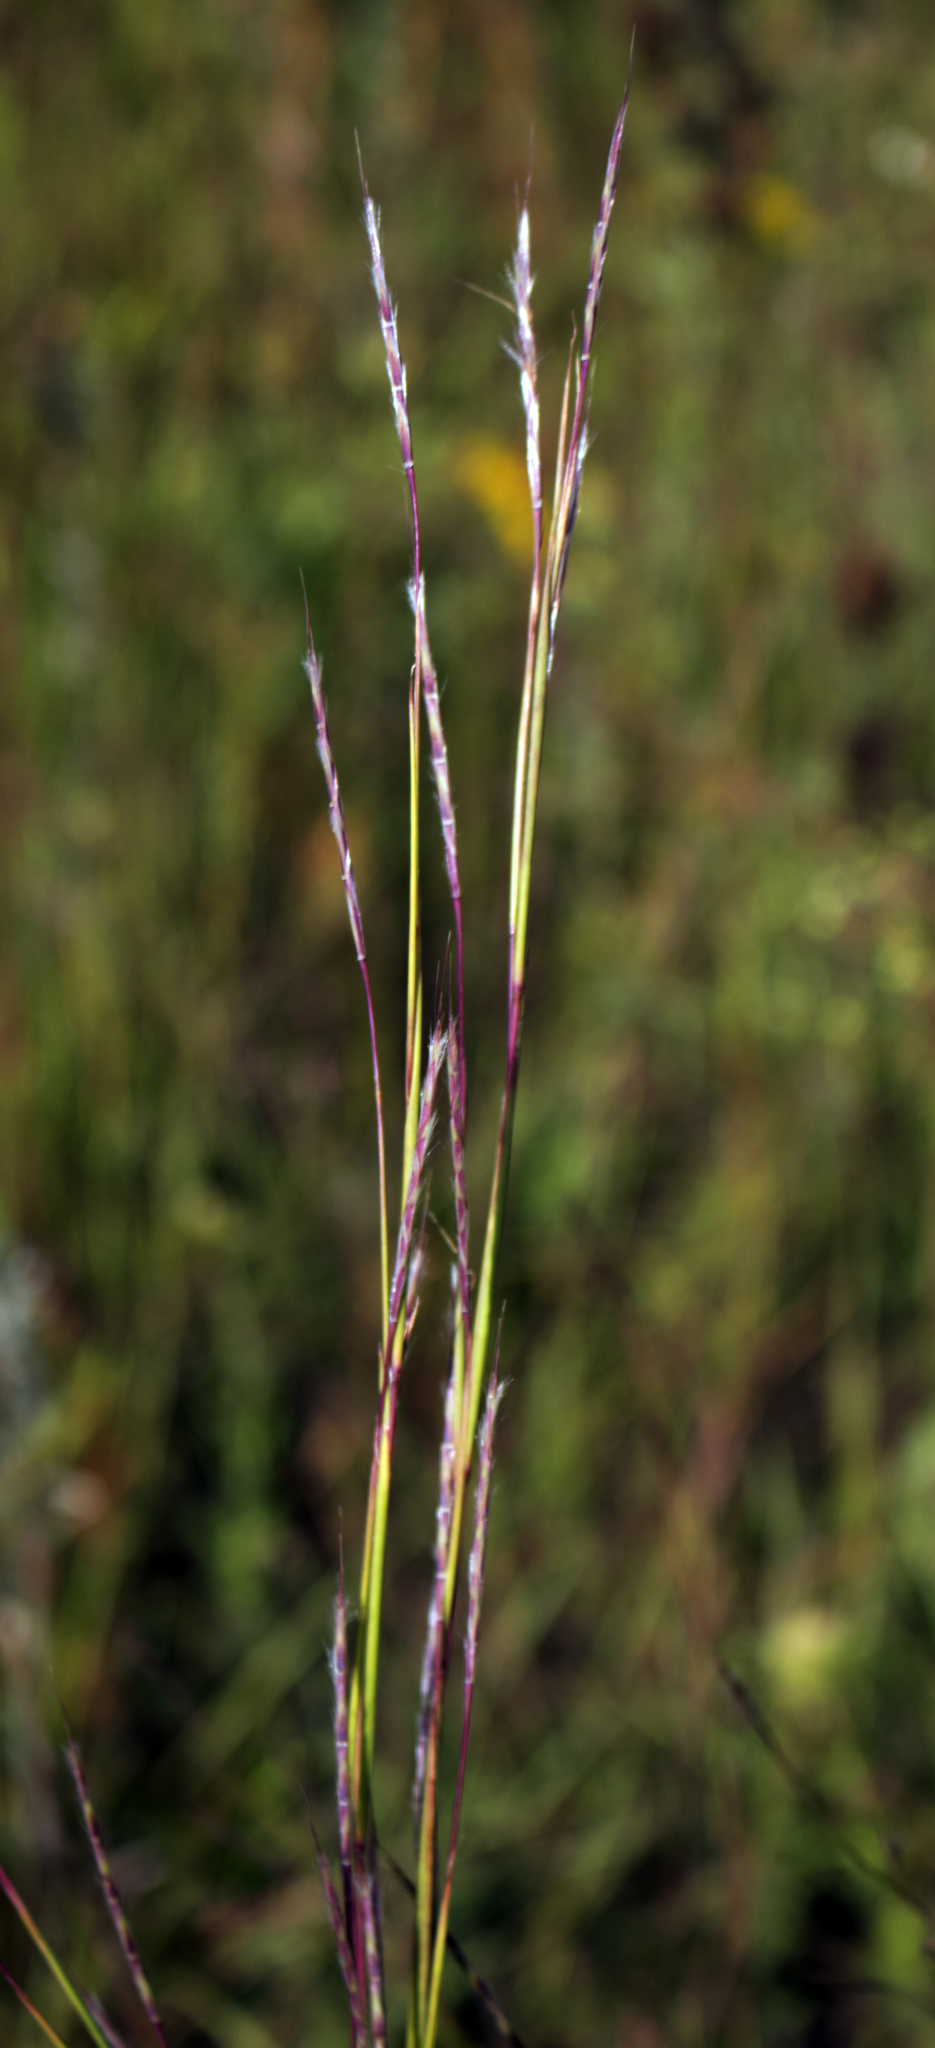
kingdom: Plantae
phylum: Tracheophyta
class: Liliopsida
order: Poales
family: Poaceae
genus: Schizachyrium
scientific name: Schizachyrium scoparium
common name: Little bluestem
